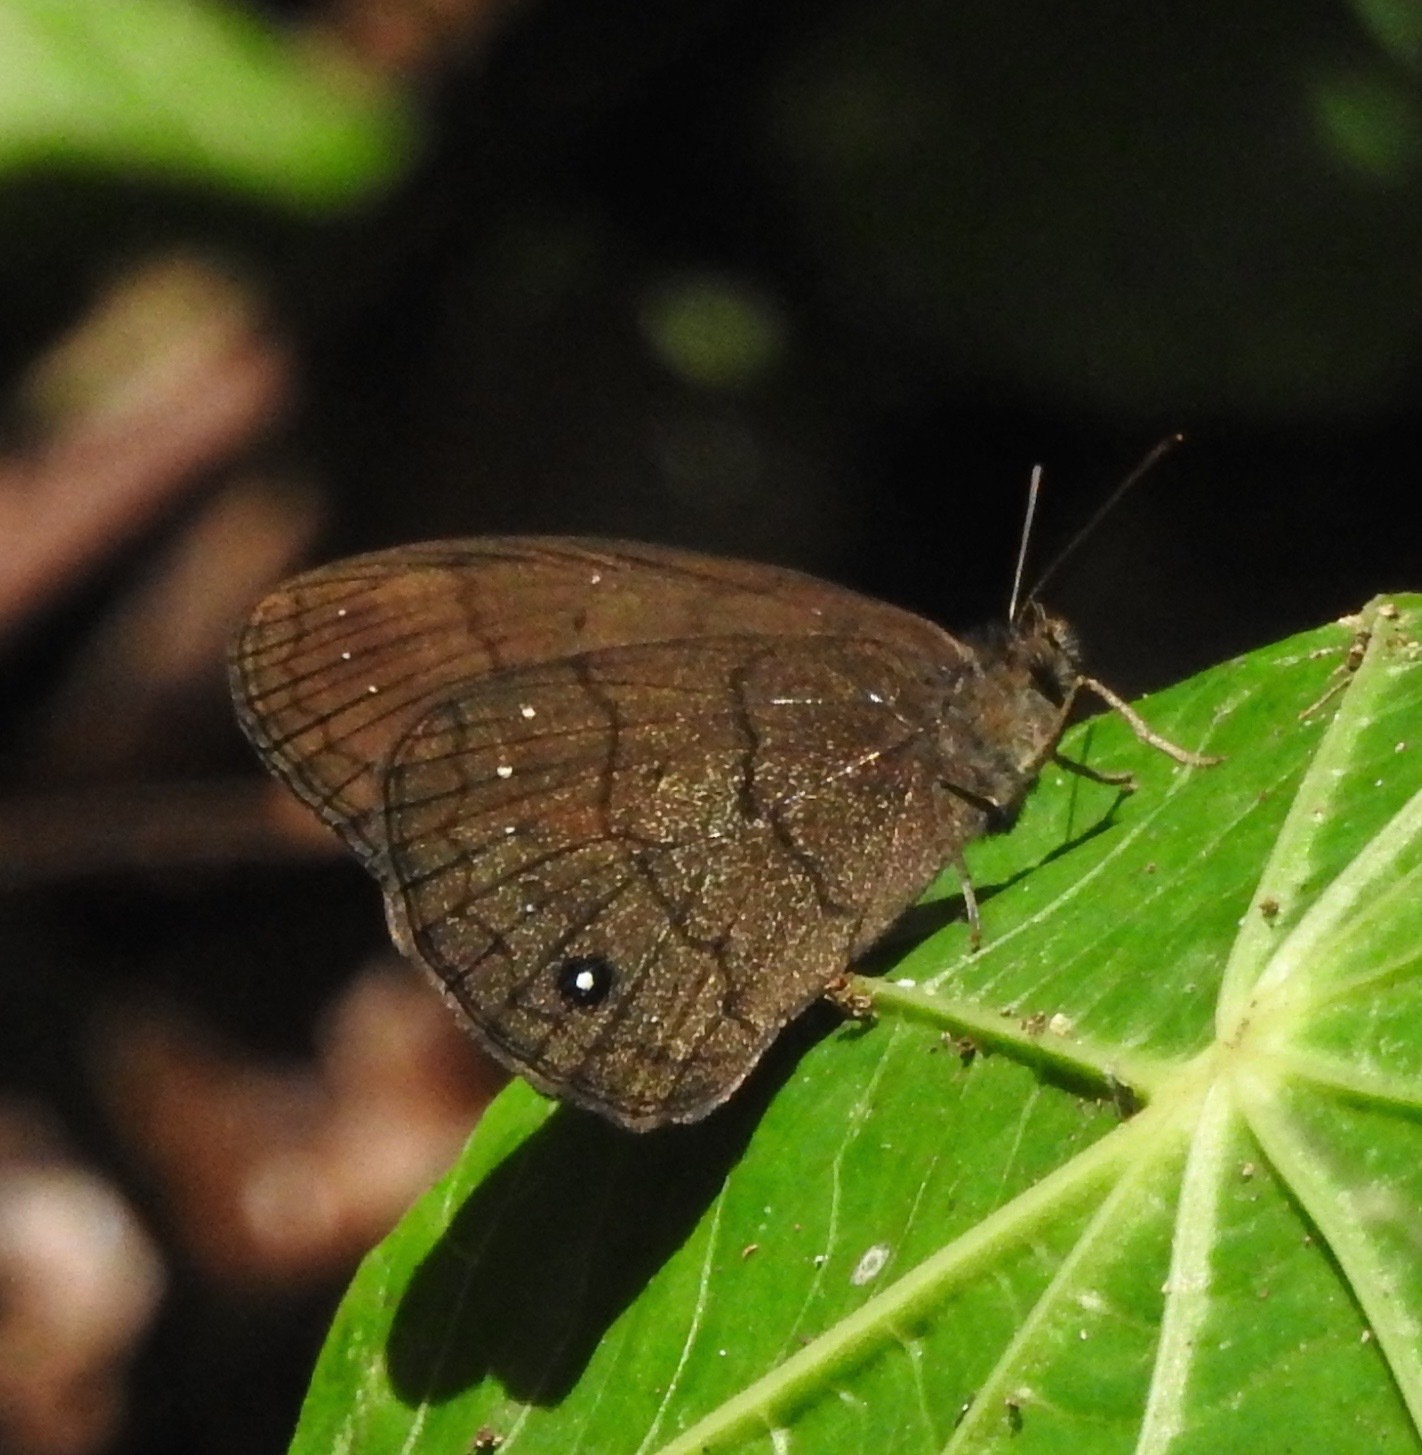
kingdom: Animalia
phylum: Arthropoda
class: Insecta
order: Lepidoptera
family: Nymphalidae
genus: Forsterinaria
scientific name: Forsterinaria neonympha
